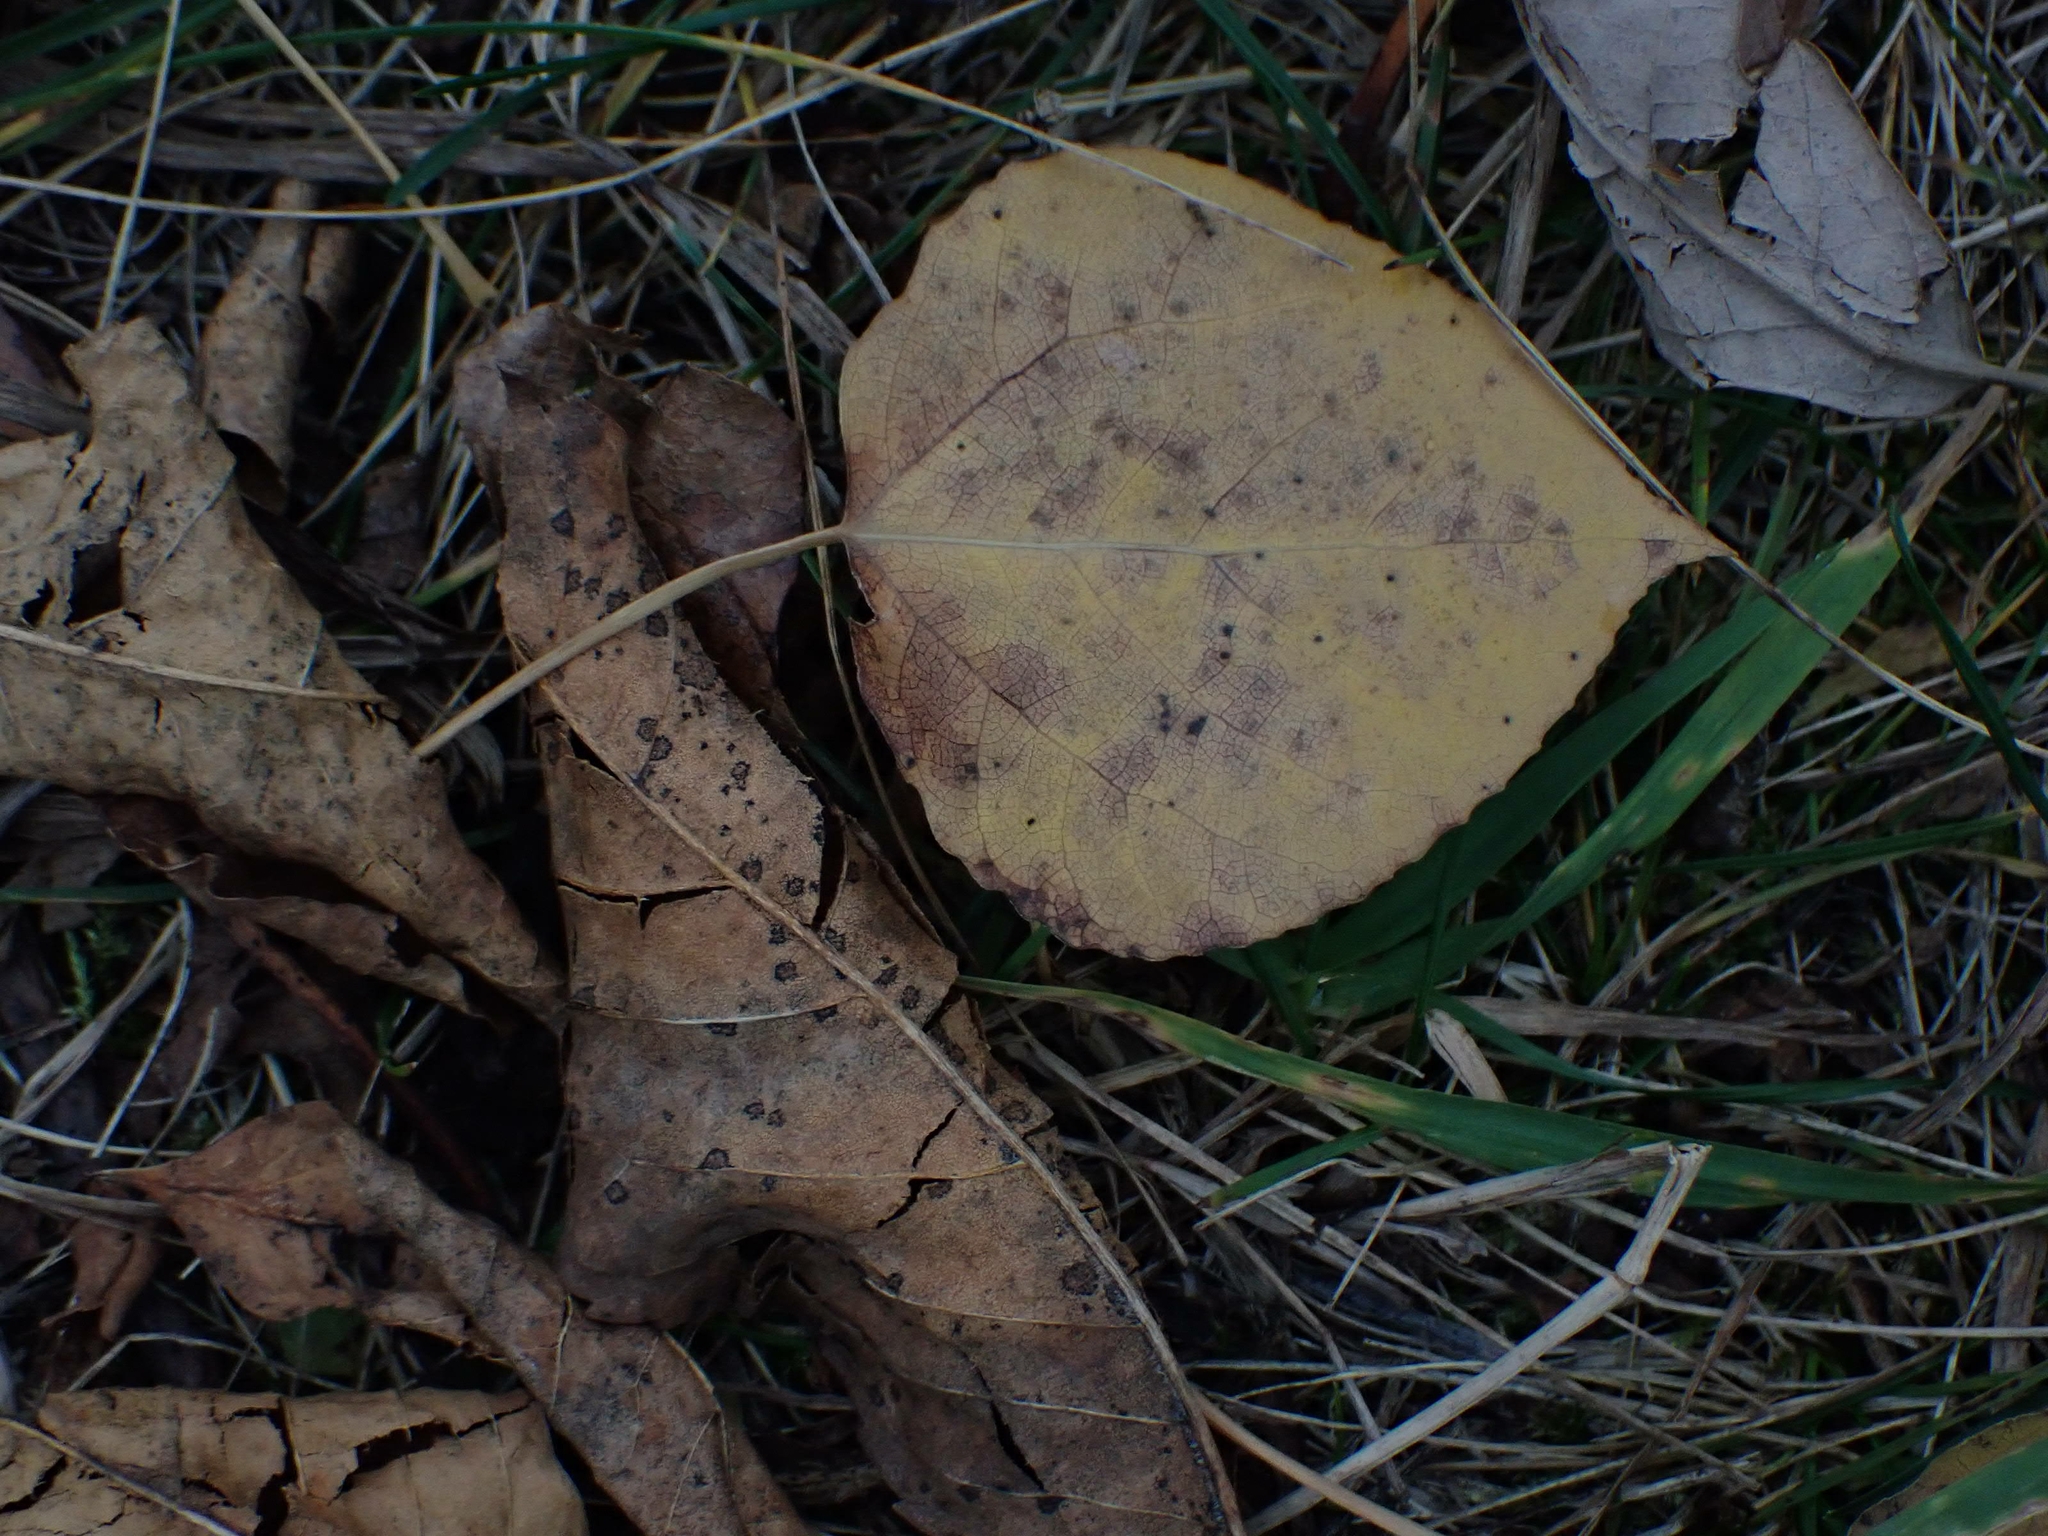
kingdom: Plantae
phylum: Tracheophyta
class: Magnoliopsida
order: Malpighiales
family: Salicaceae
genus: Populus
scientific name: Populus tremuloides
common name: Quaking aspen
